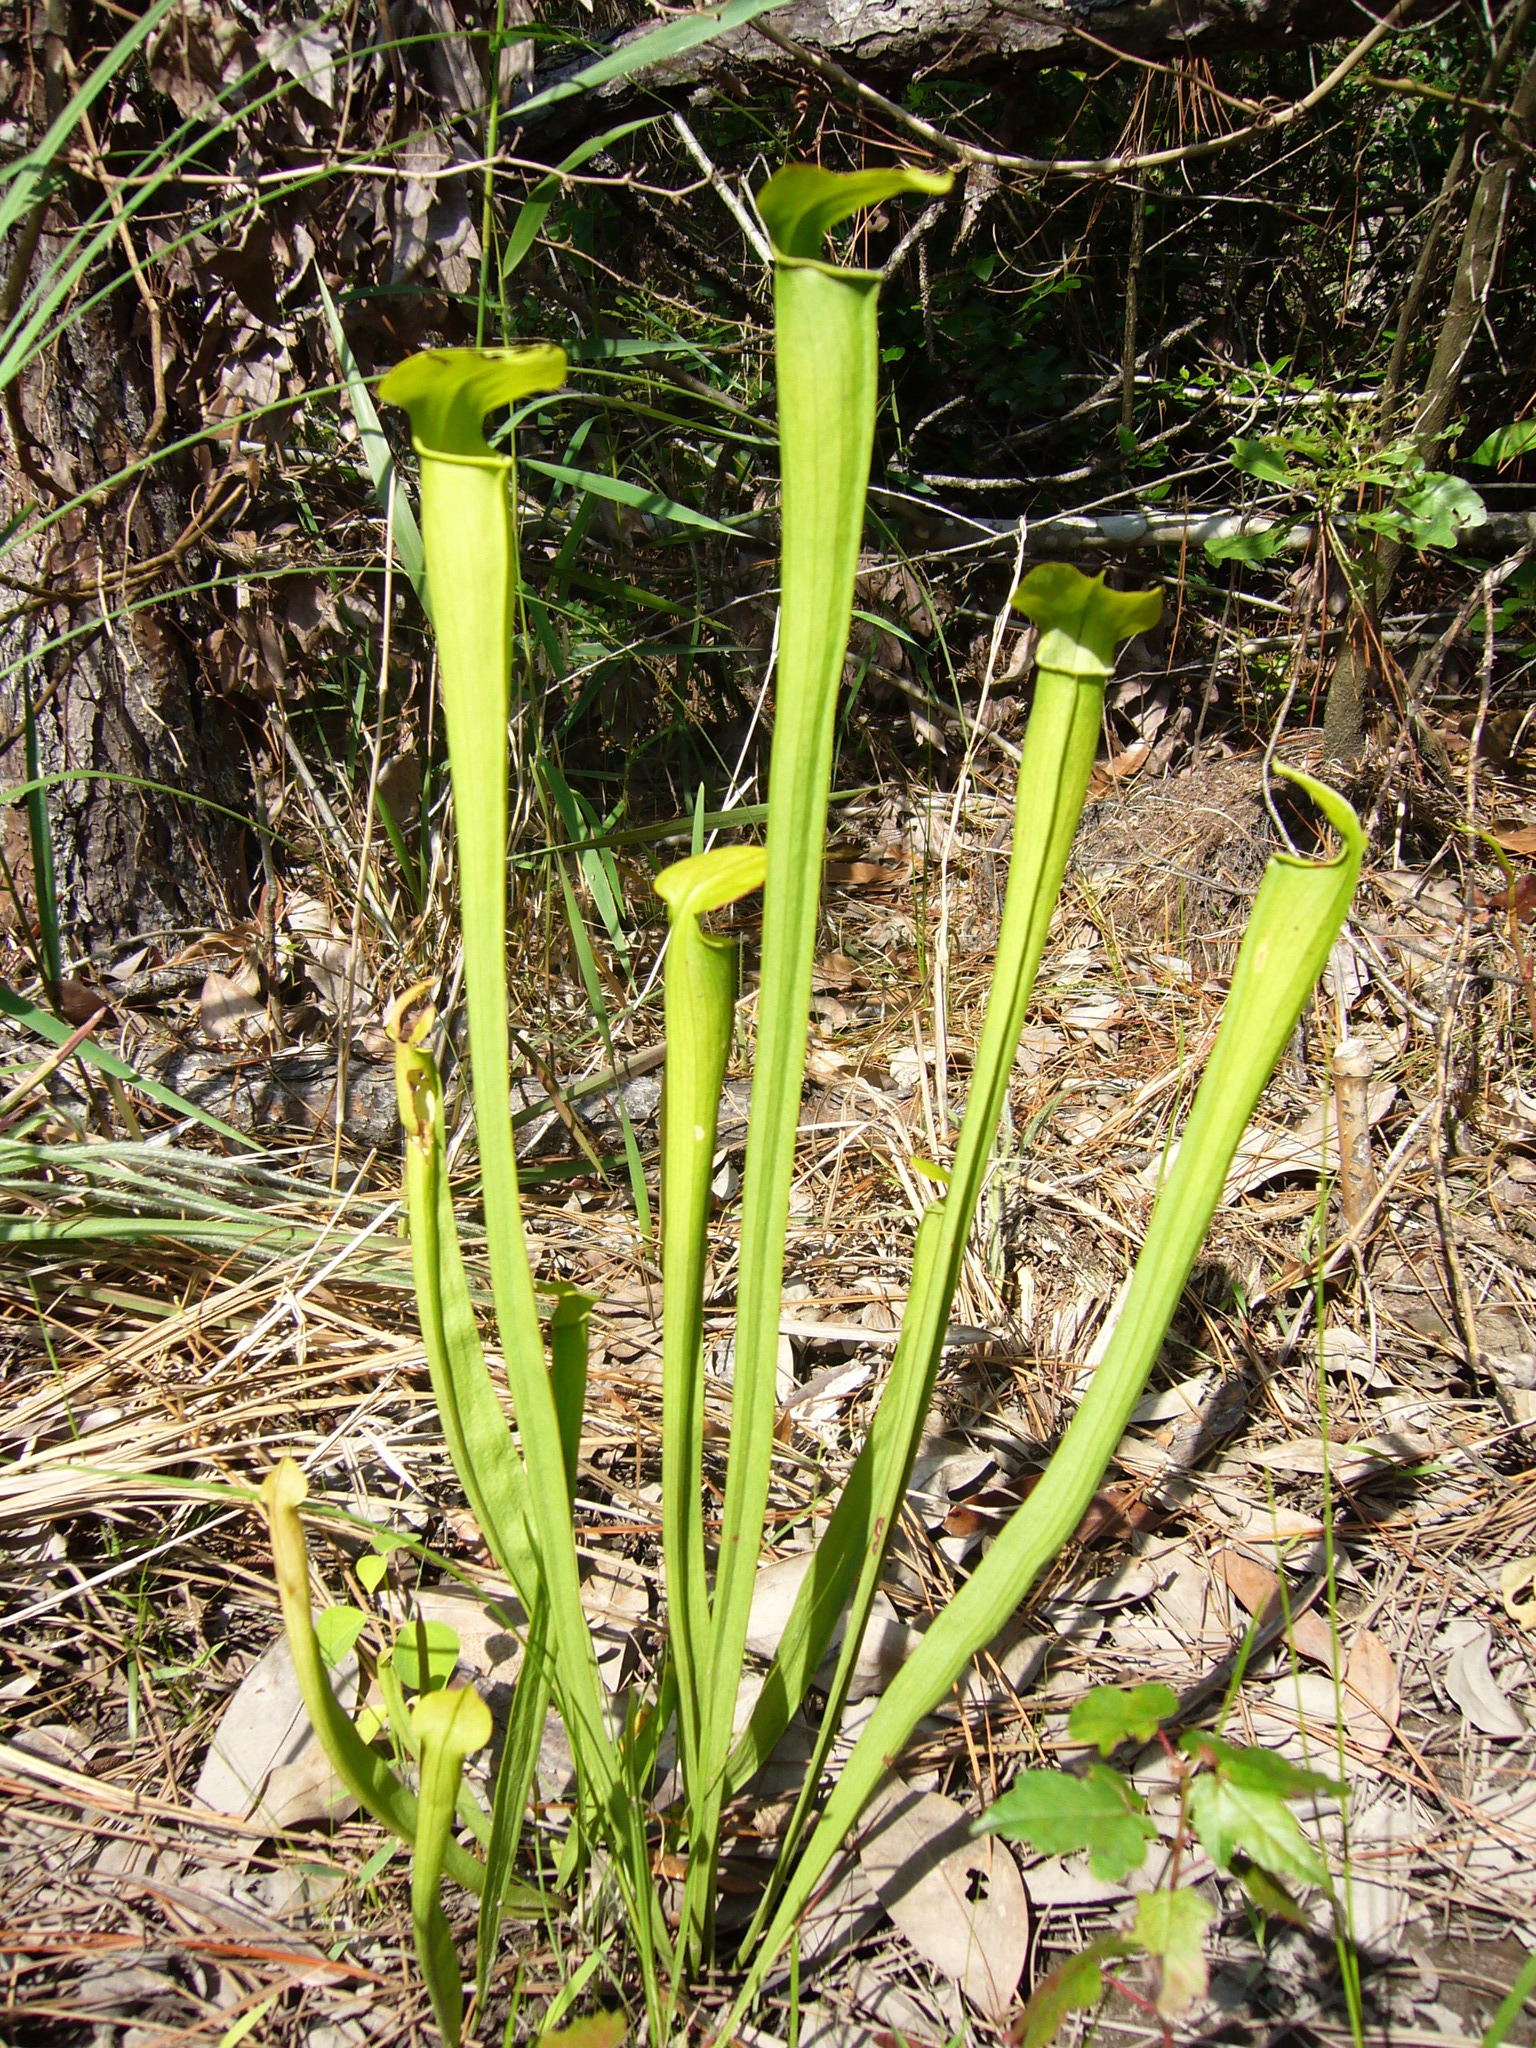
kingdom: Plantae
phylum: Tracheophyta
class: Magnoliopsida
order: Ericales
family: Sarraceniaceae
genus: Sarracenia
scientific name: Sarracenia alata
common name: Yellow trumpets
